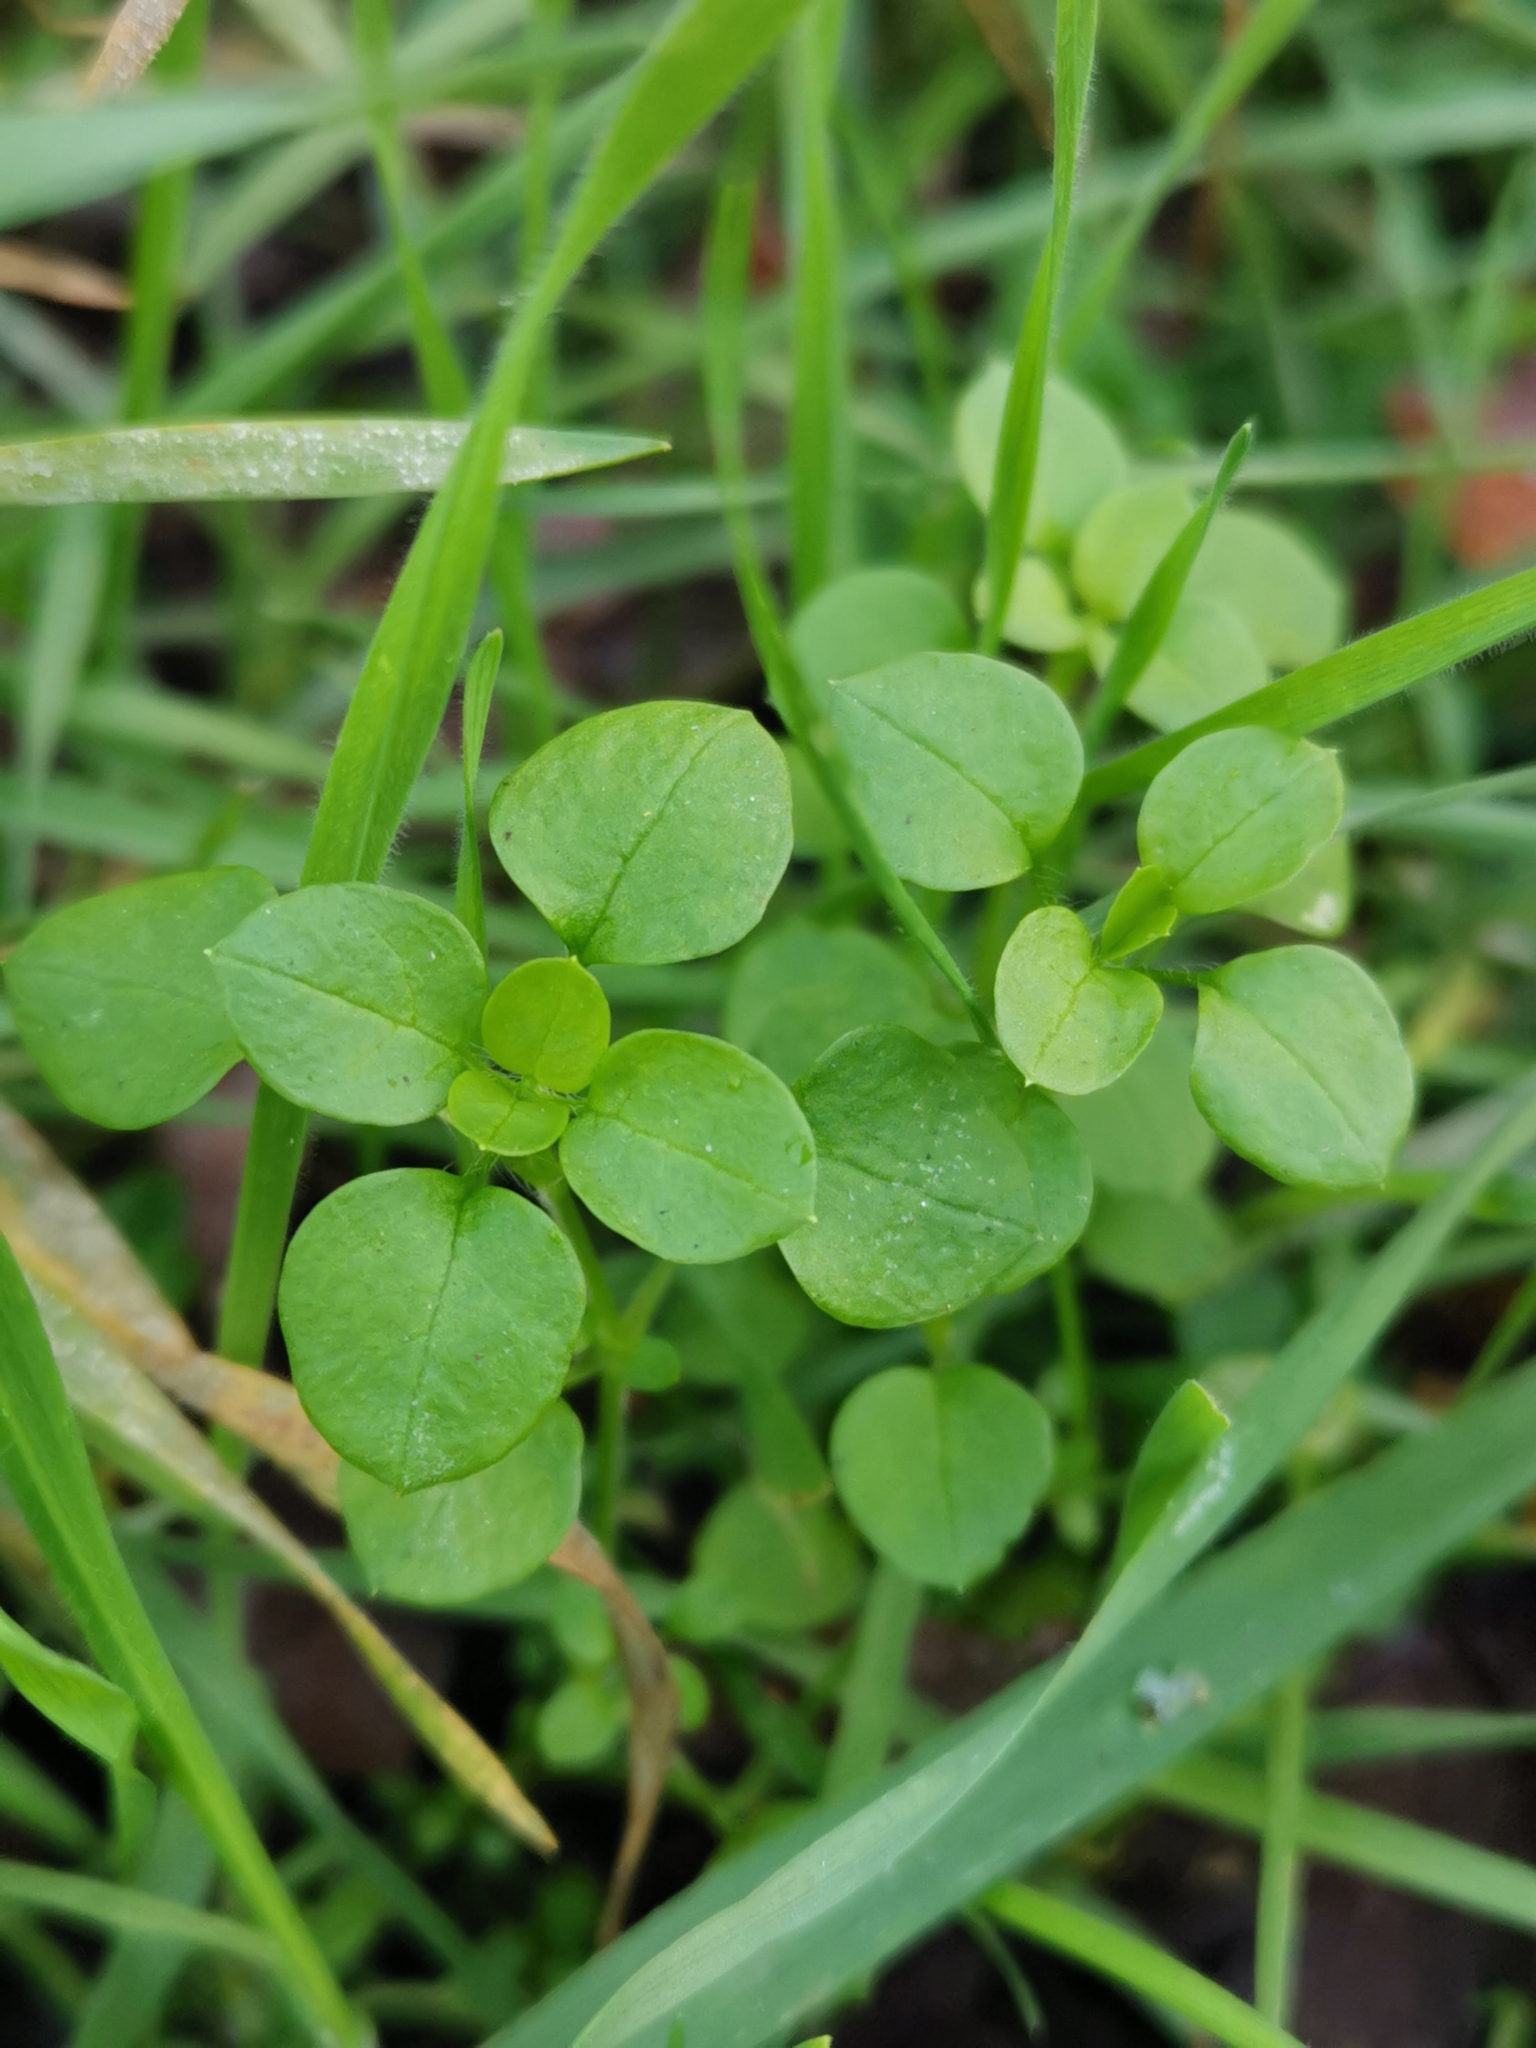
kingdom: Plantae
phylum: Tracheophyta
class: Magnoliopsida
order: Caryophyllales
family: Caryophyllaceae
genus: Stellaria
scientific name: Stellaria media
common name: Common chickweed
